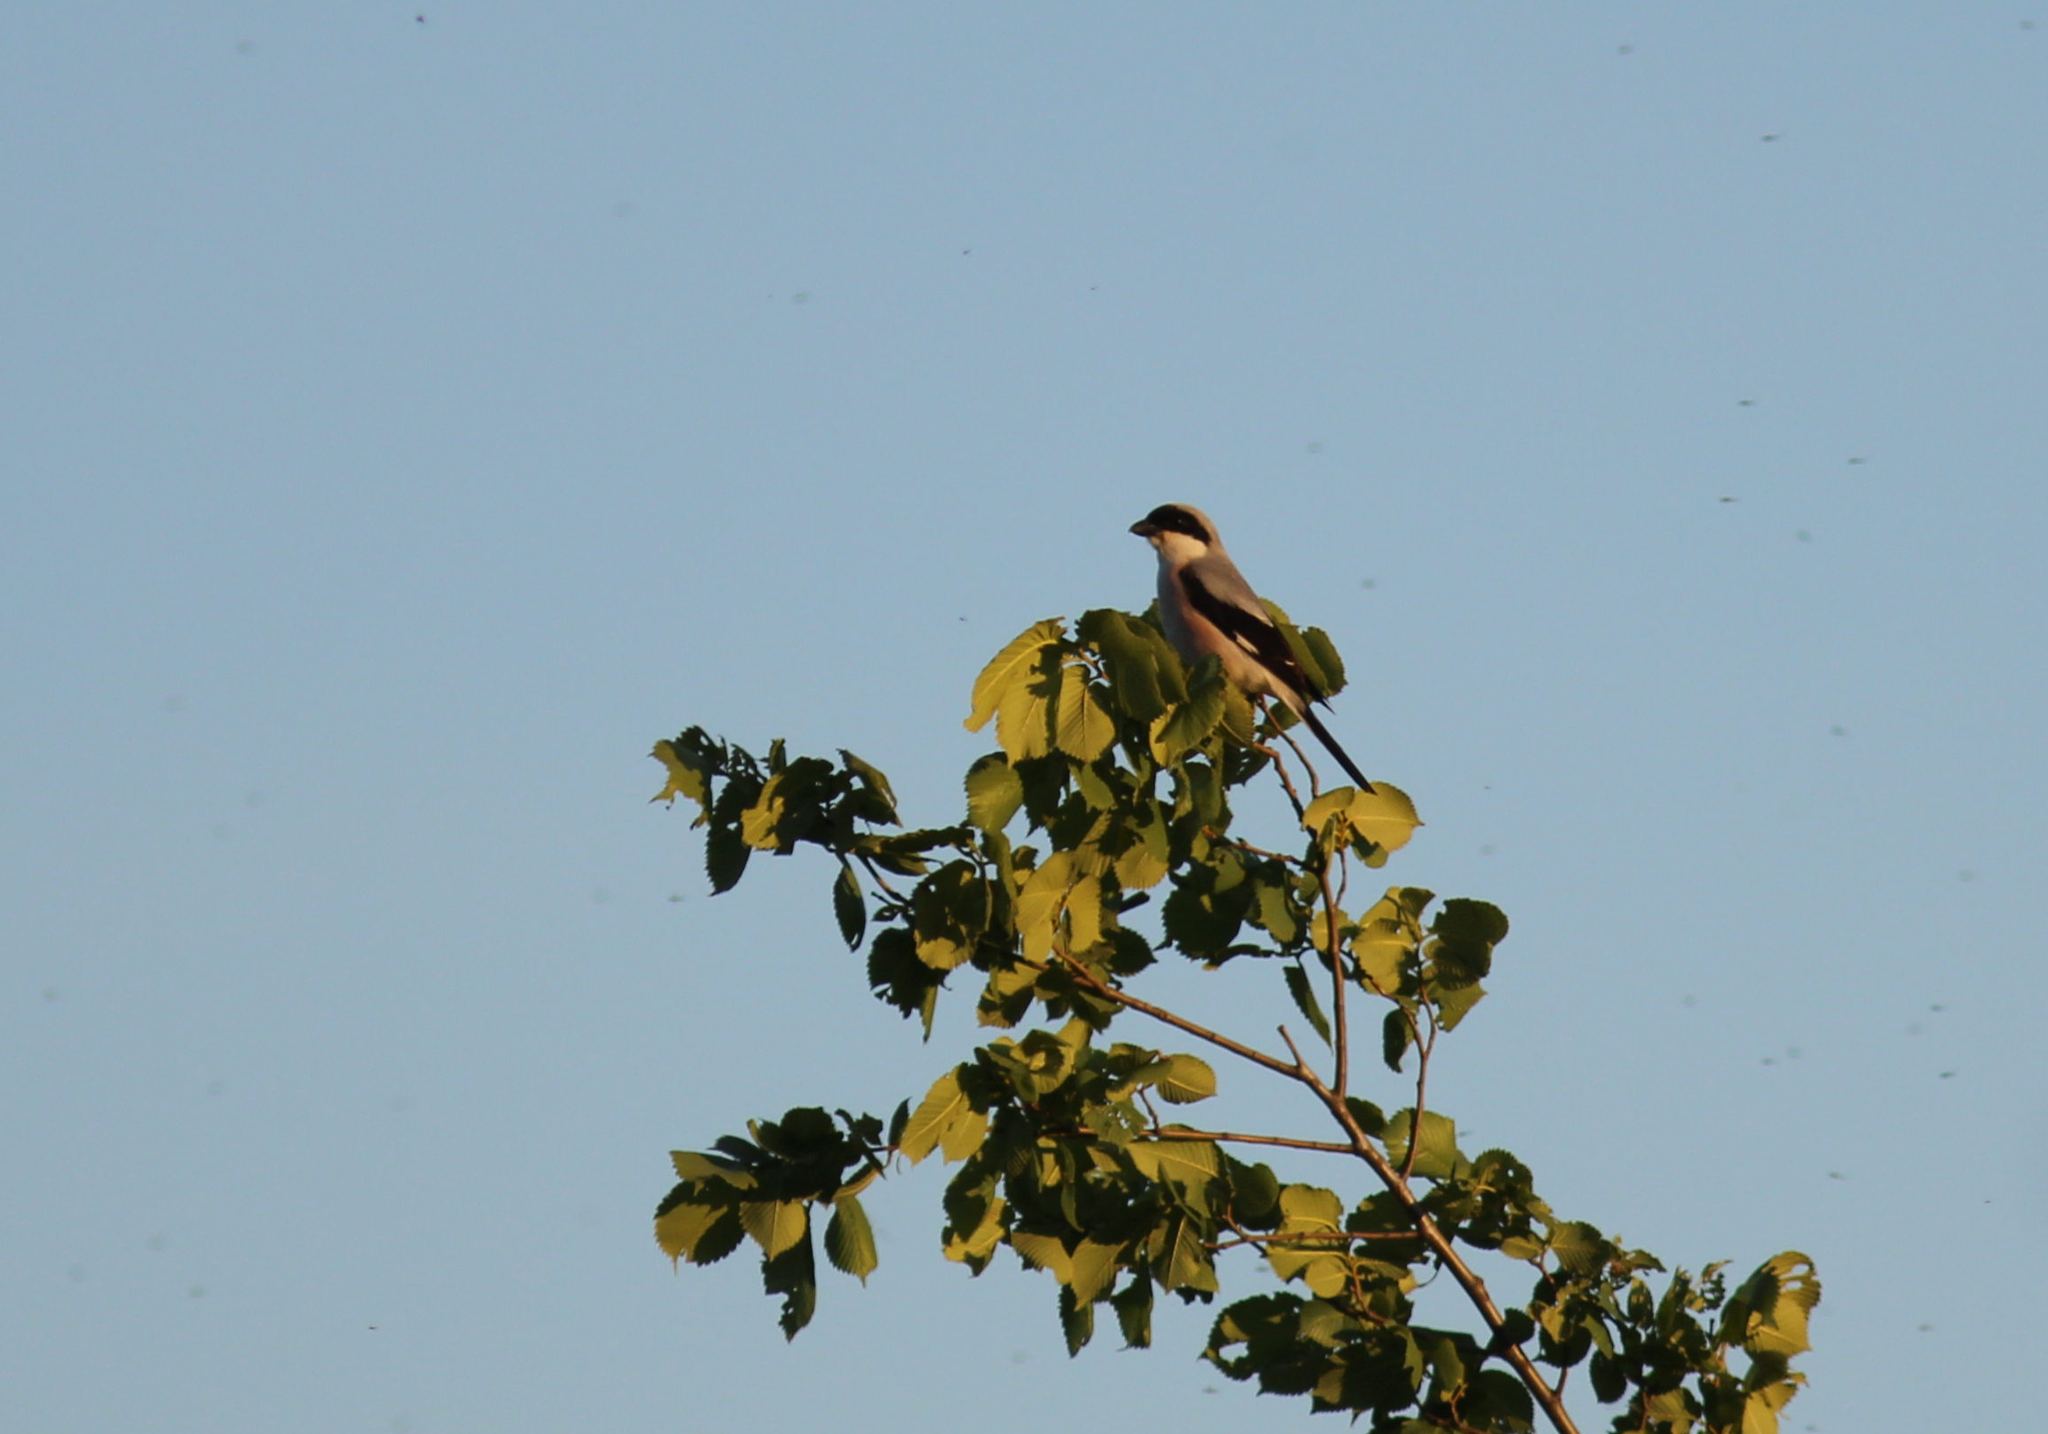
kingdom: Animalia
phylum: Chordata
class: Aves
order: Passeriformes
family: Laniidae
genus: Lanius
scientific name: Lanius minor
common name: Lesser grey shrike
